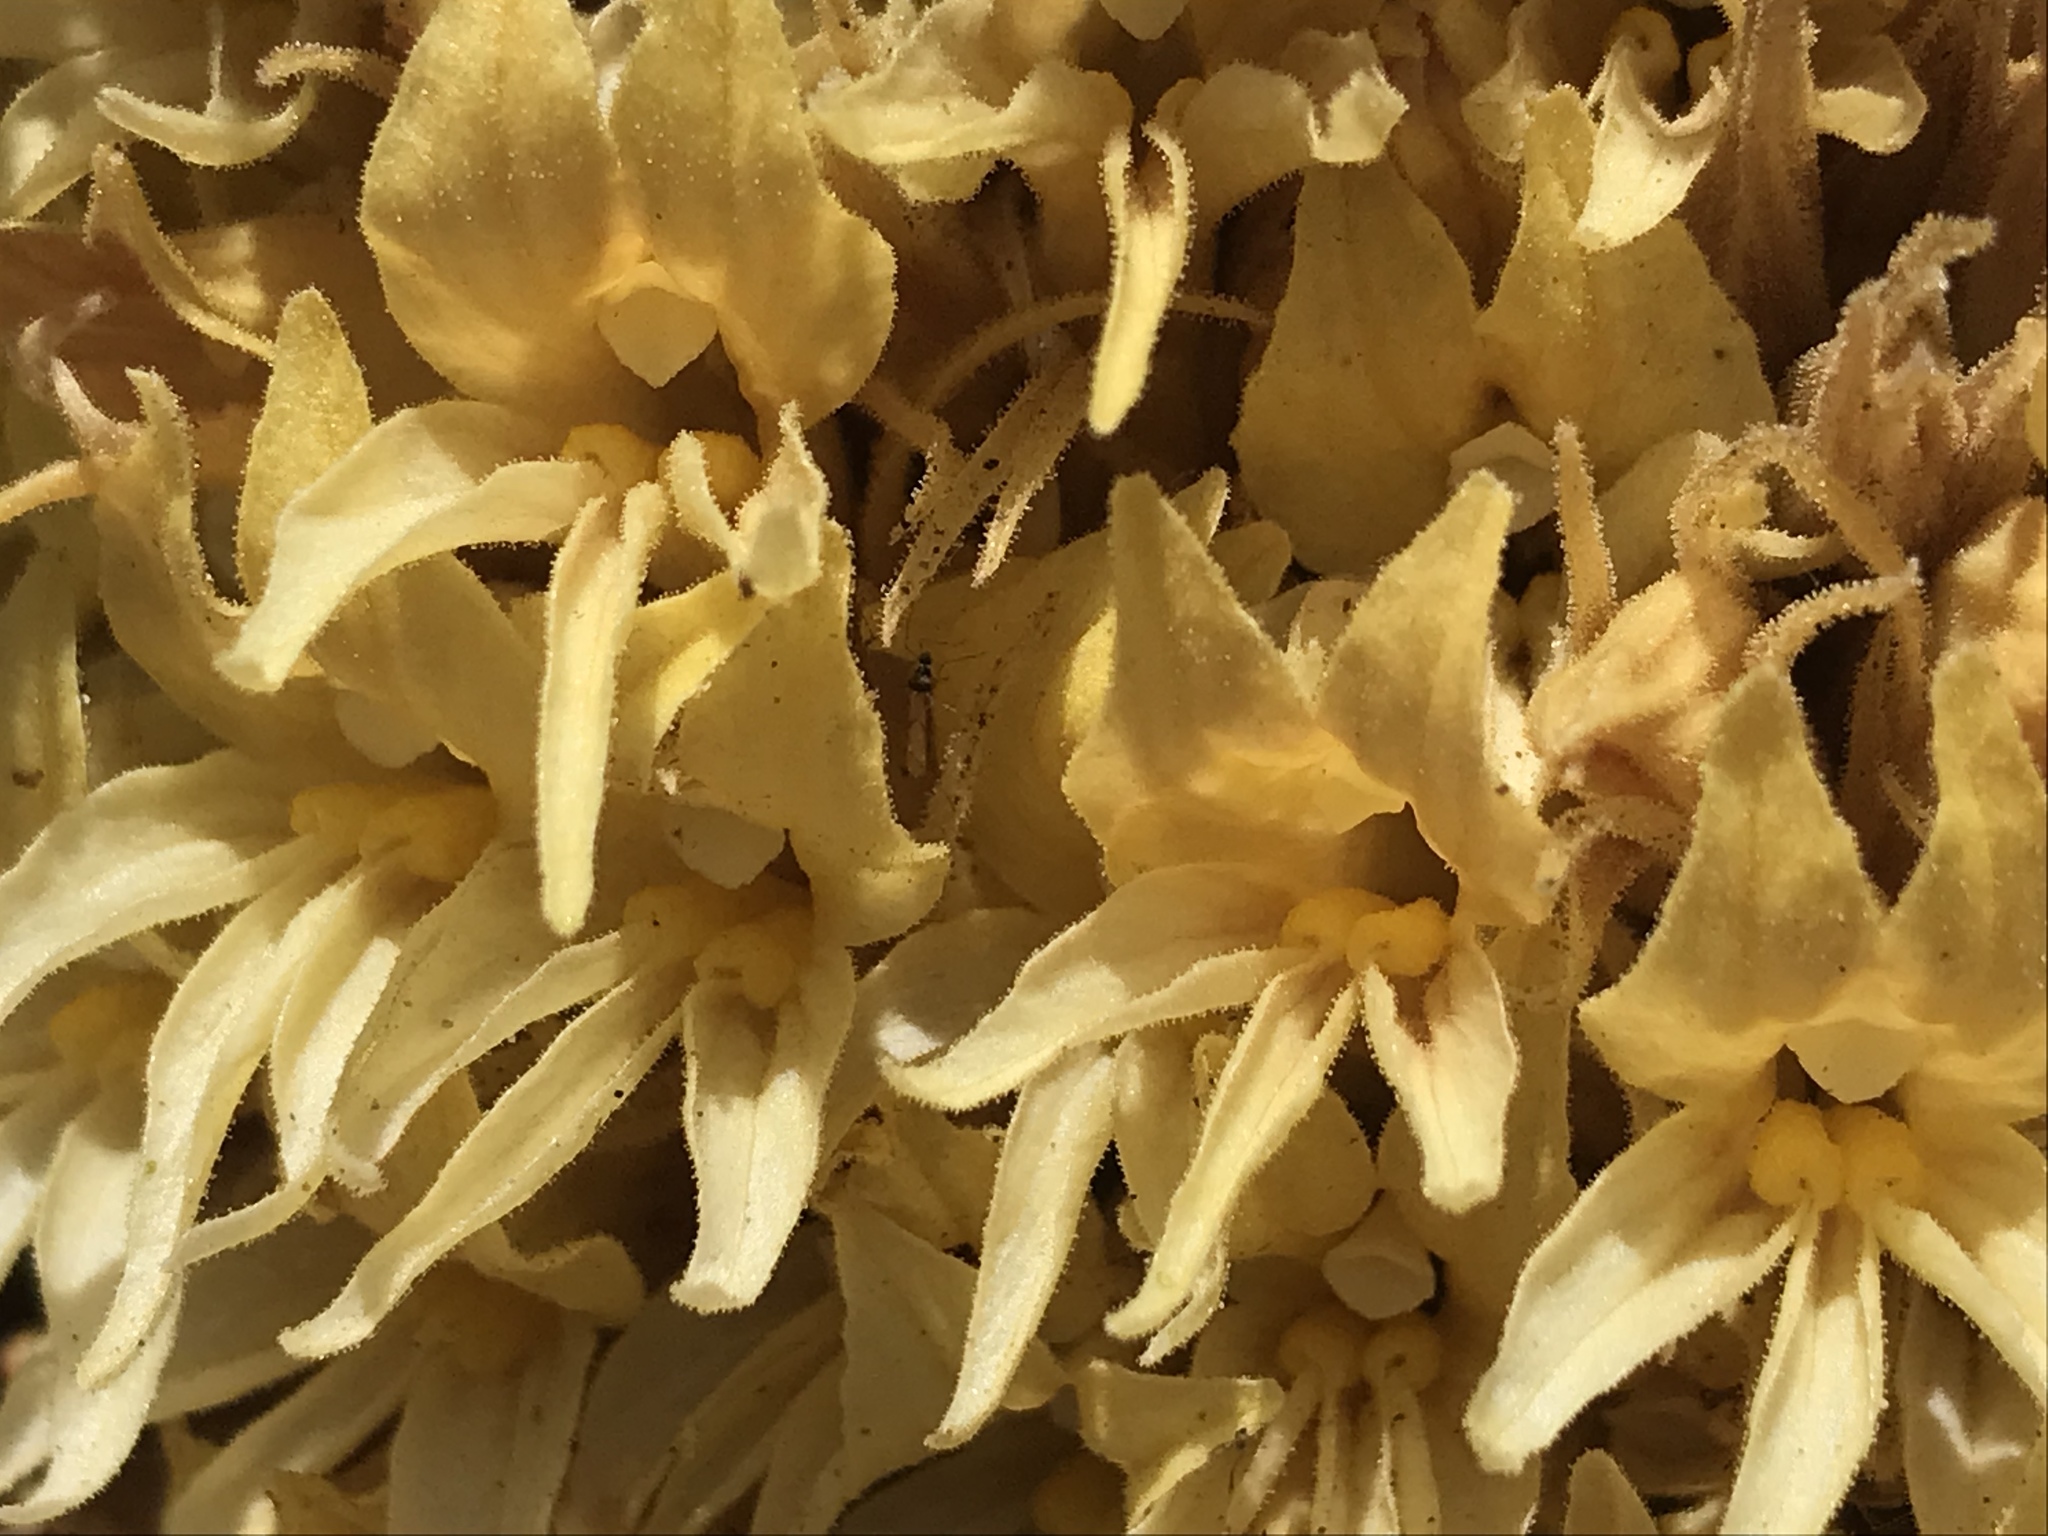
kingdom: Plantae
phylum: Tracheophyta
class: Magnoliopsida
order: Lamiales
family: Orobanchaceae
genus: Aphyllon
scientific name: Aphyllon californicum
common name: California broomrape
